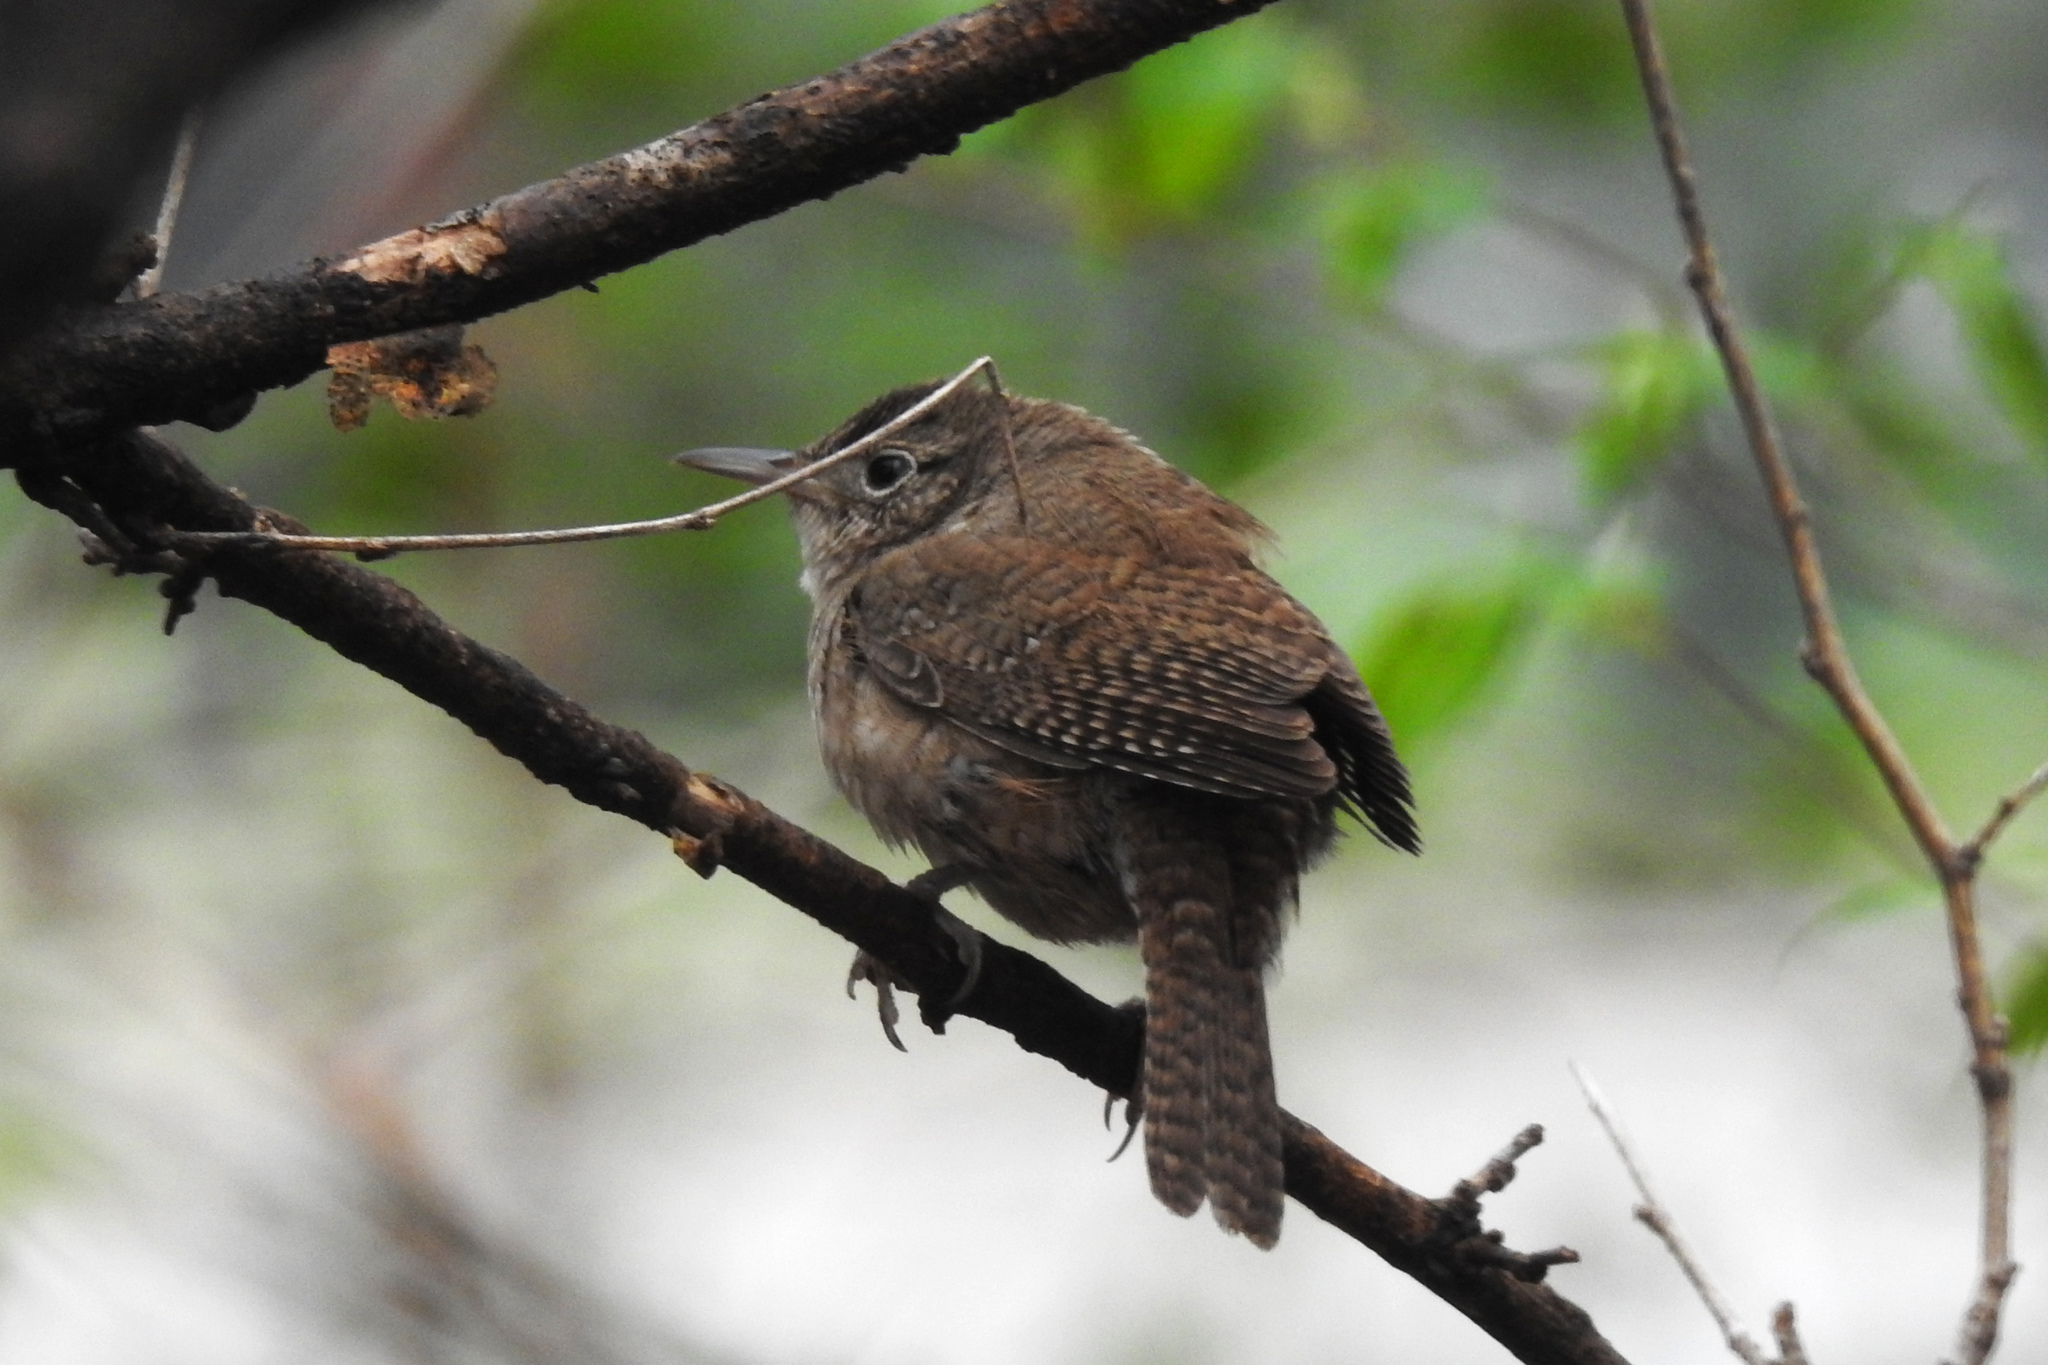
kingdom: Animalia
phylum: Chordata
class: Aves
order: Passeriformes
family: Troglodytidae
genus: Troglodytes
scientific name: Troglodytes aedon
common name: House wren
